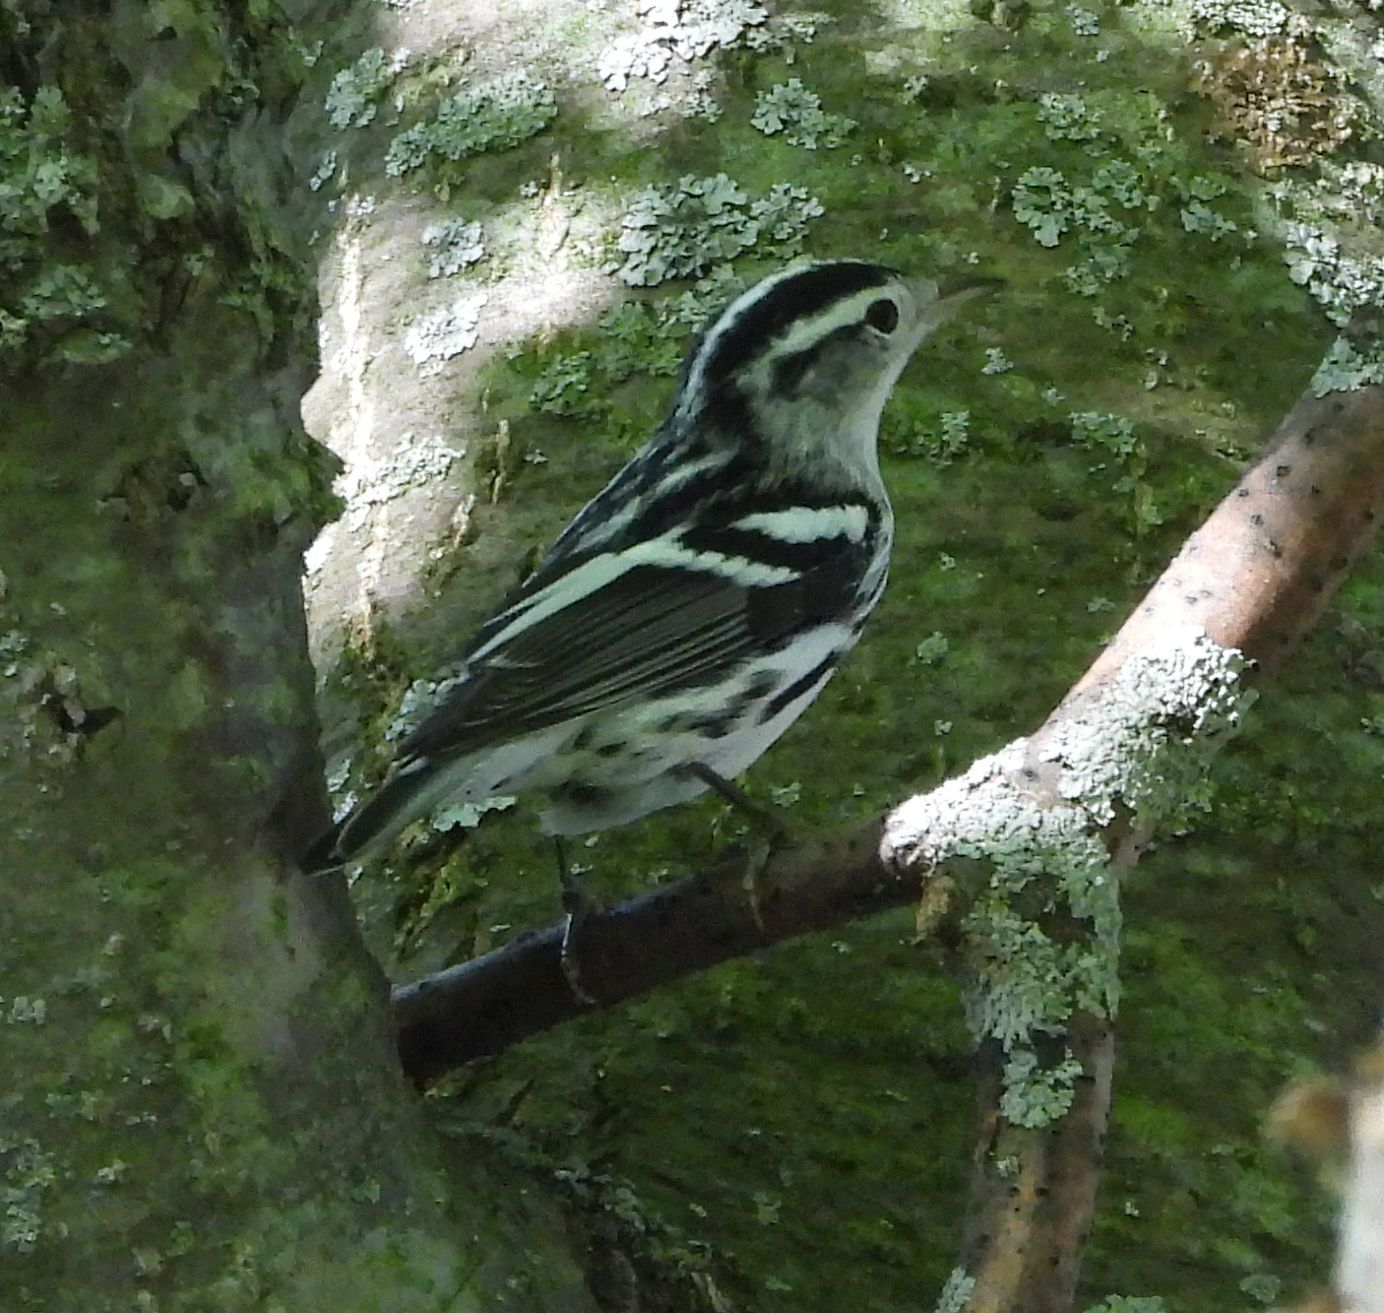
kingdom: Animalia
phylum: Chordata
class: Aves
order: Passeriformes
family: Parulidae
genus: Mniotilta
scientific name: Mniotilta varia
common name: Black-and-white warbler
